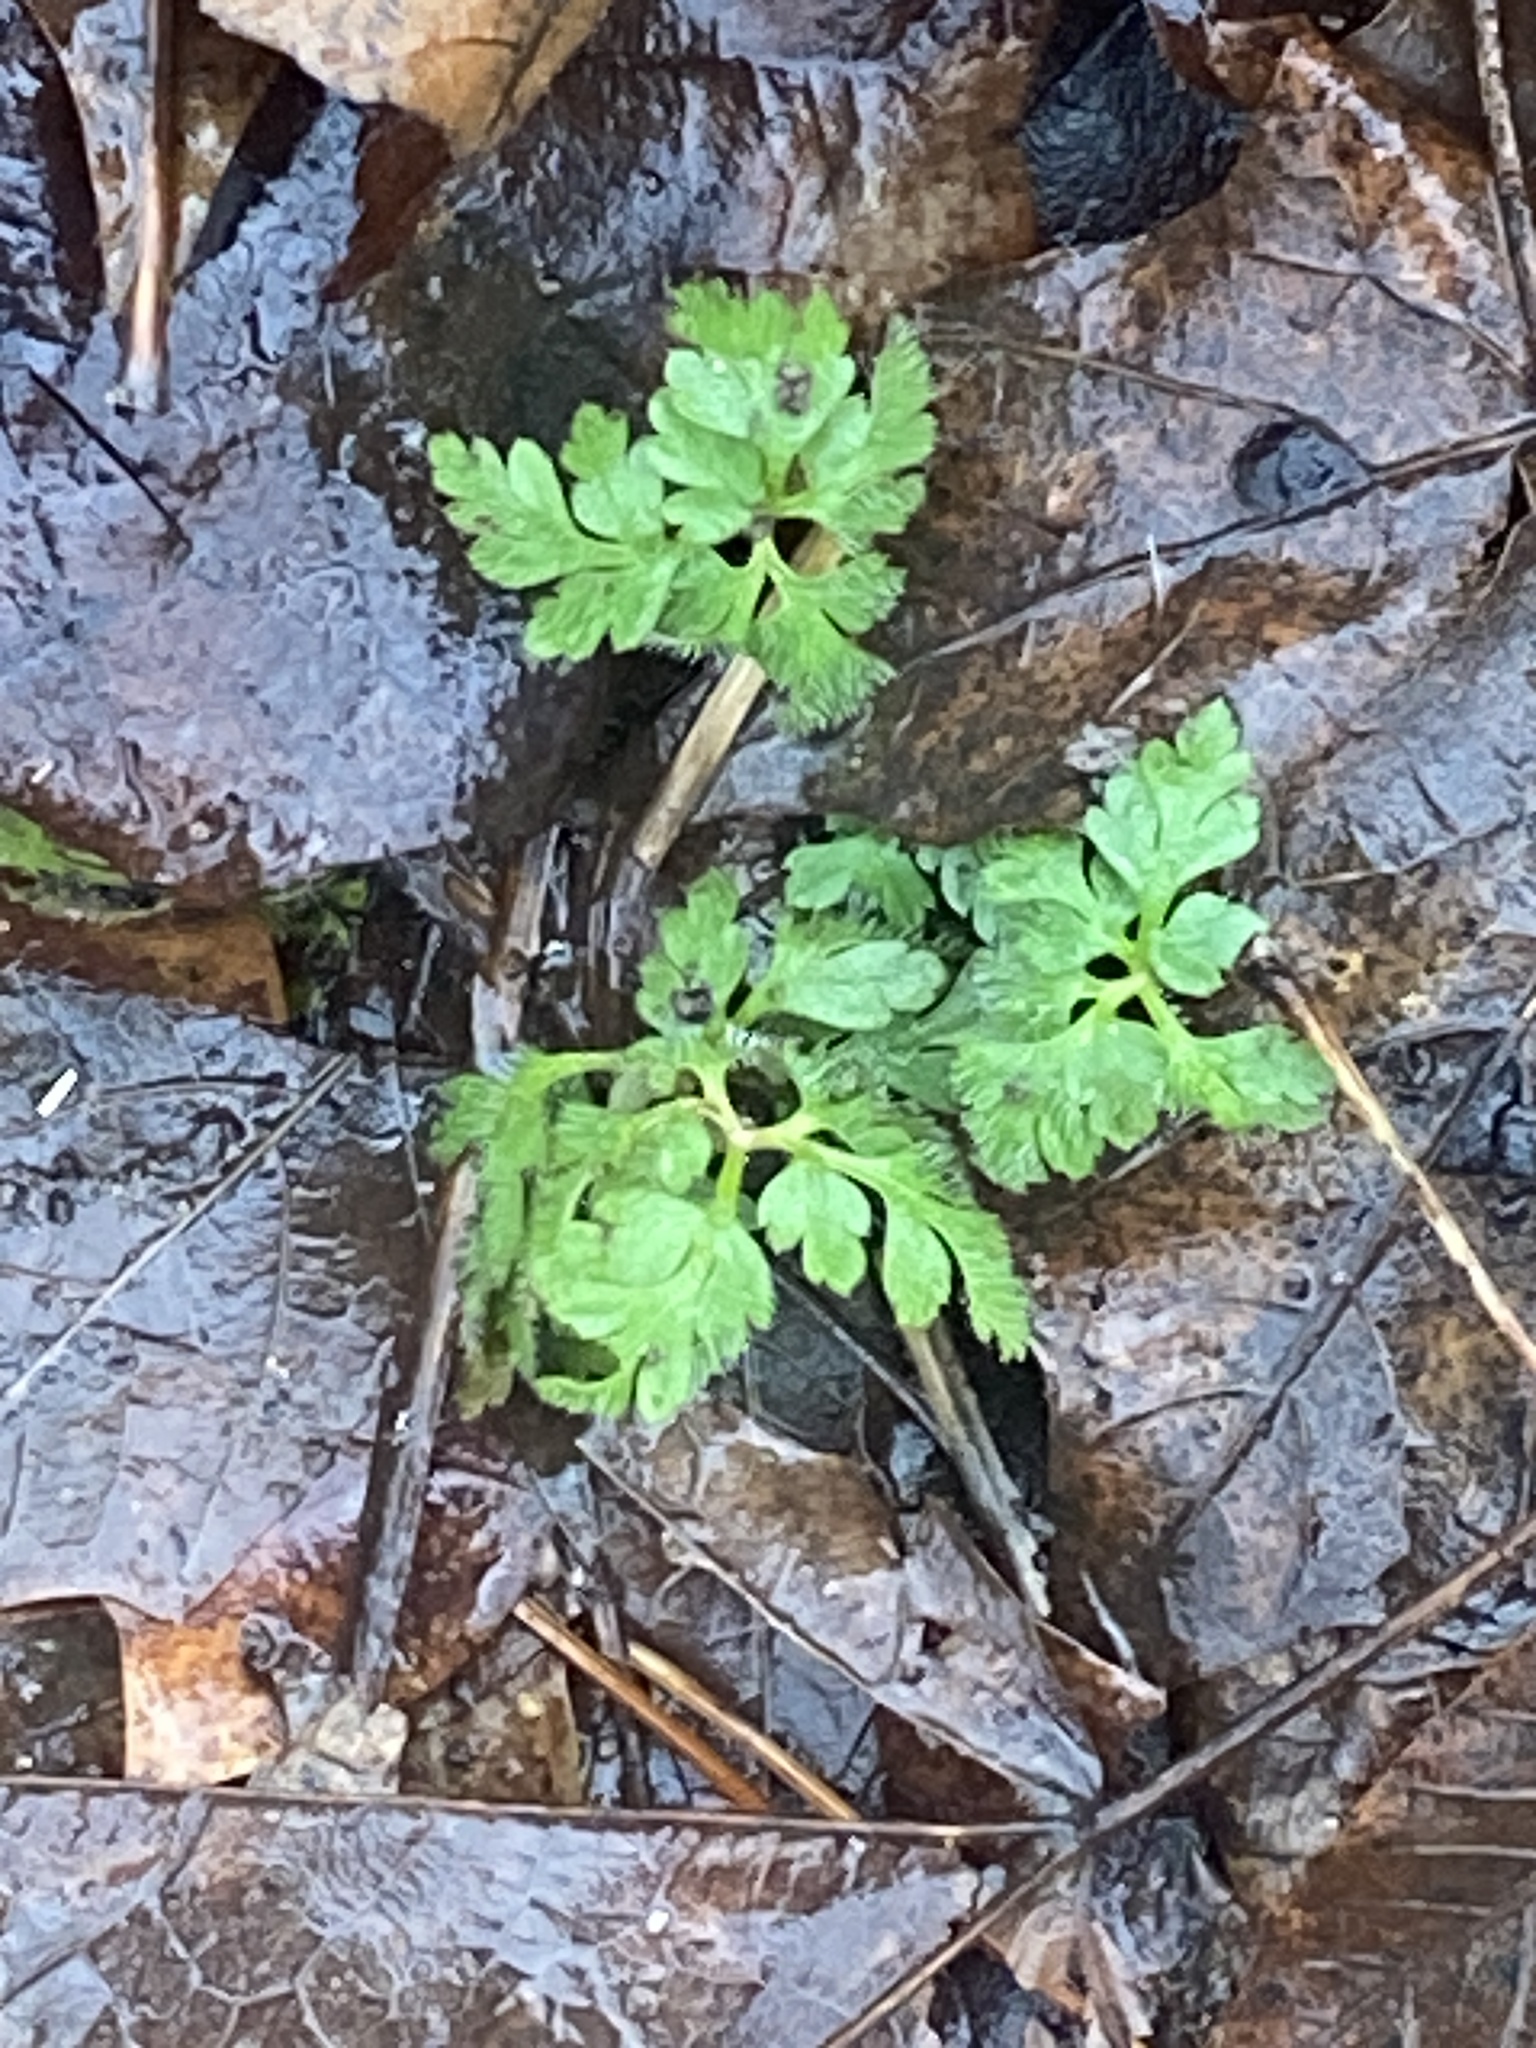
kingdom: Plantae
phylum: Tracheophyta
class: Magnoliopsida
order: Geraniales
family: Geraniaceae
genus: Geranium
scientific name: Geranium robertianum
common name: Herb-robert
